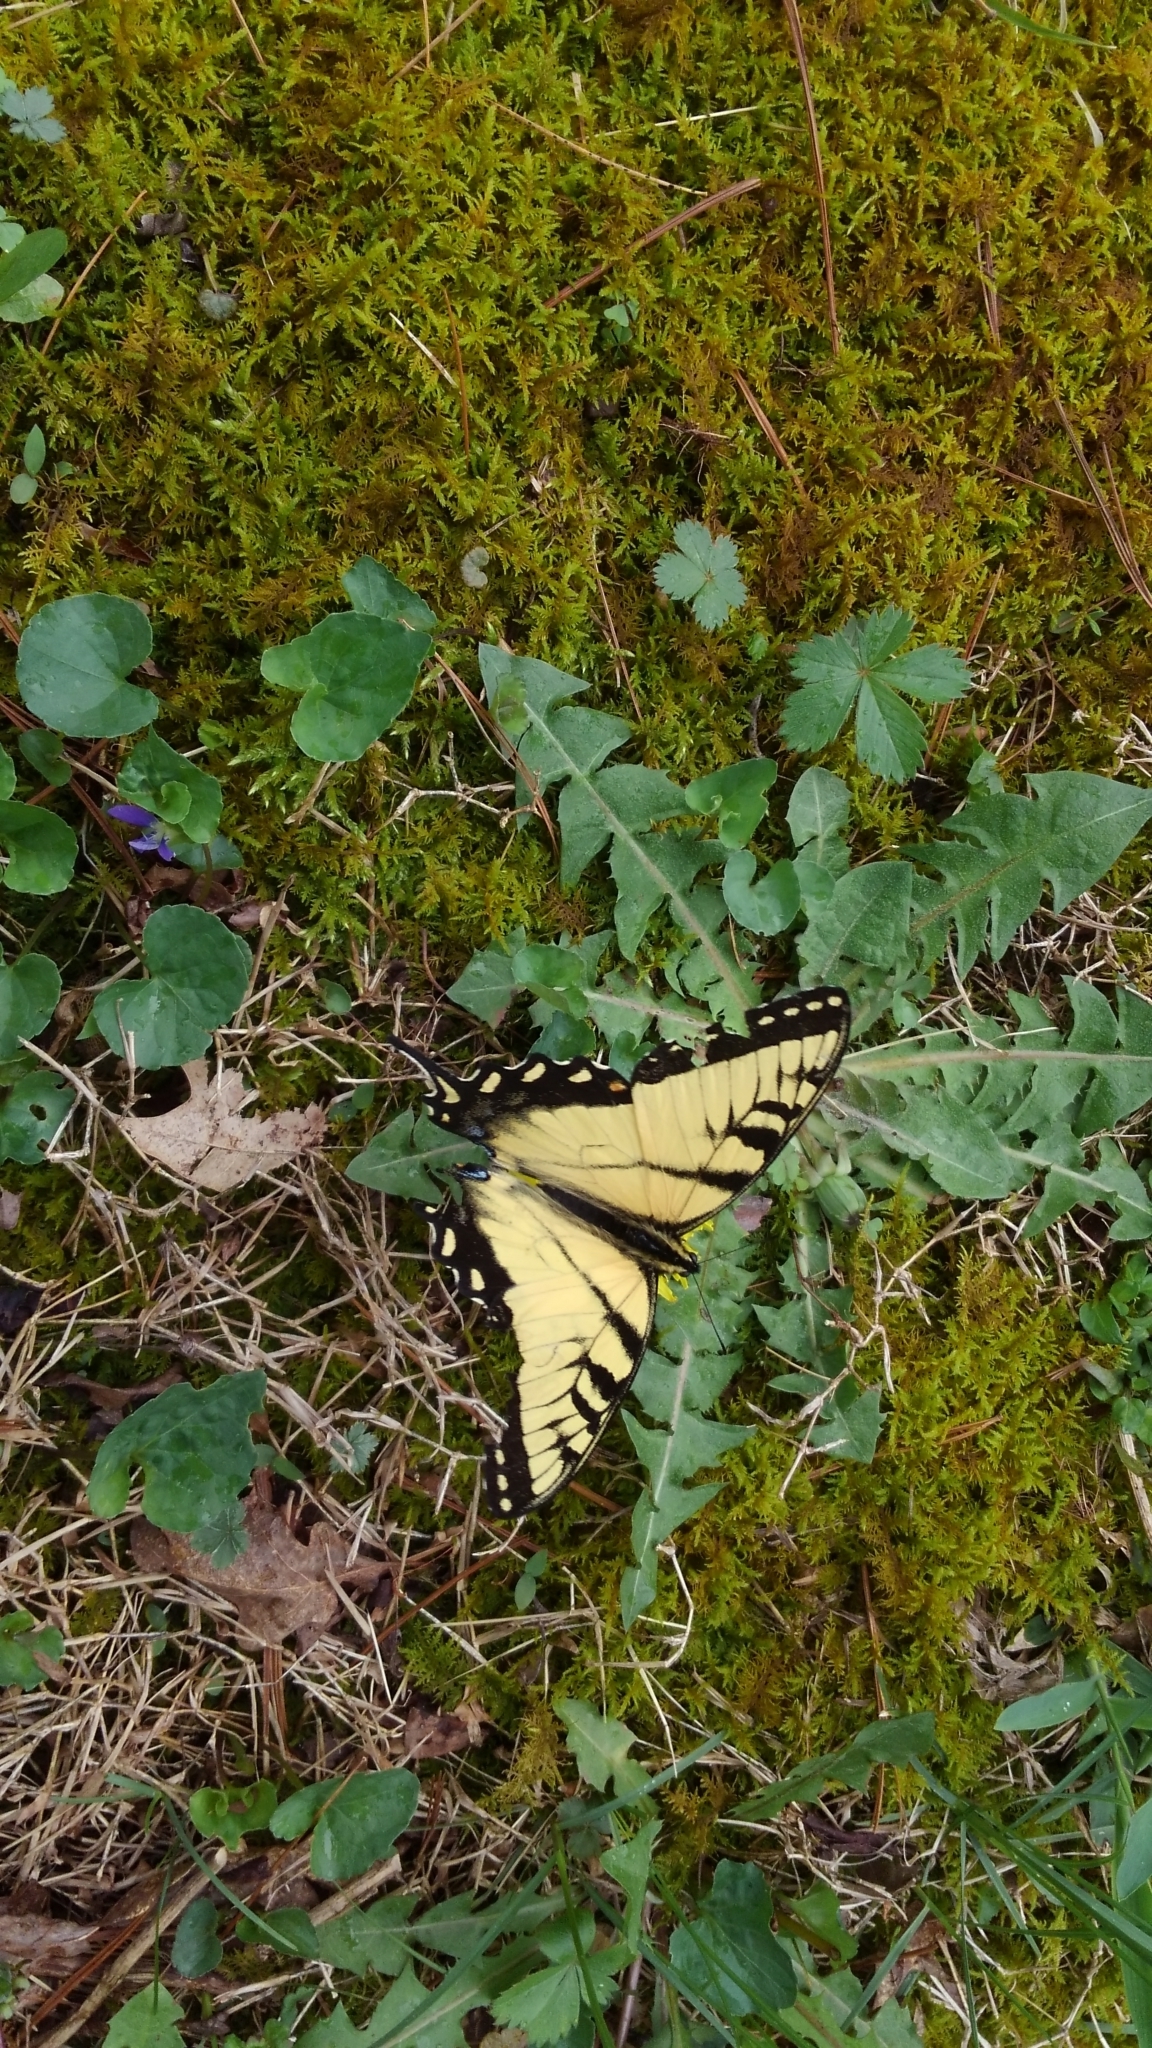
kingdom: Animalia
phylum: Arthropoda
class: Insecta
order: Lepidoptera
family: Papilionidae
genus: Papilio
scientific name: Papilio glaucus
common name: Tiger swallowtail
